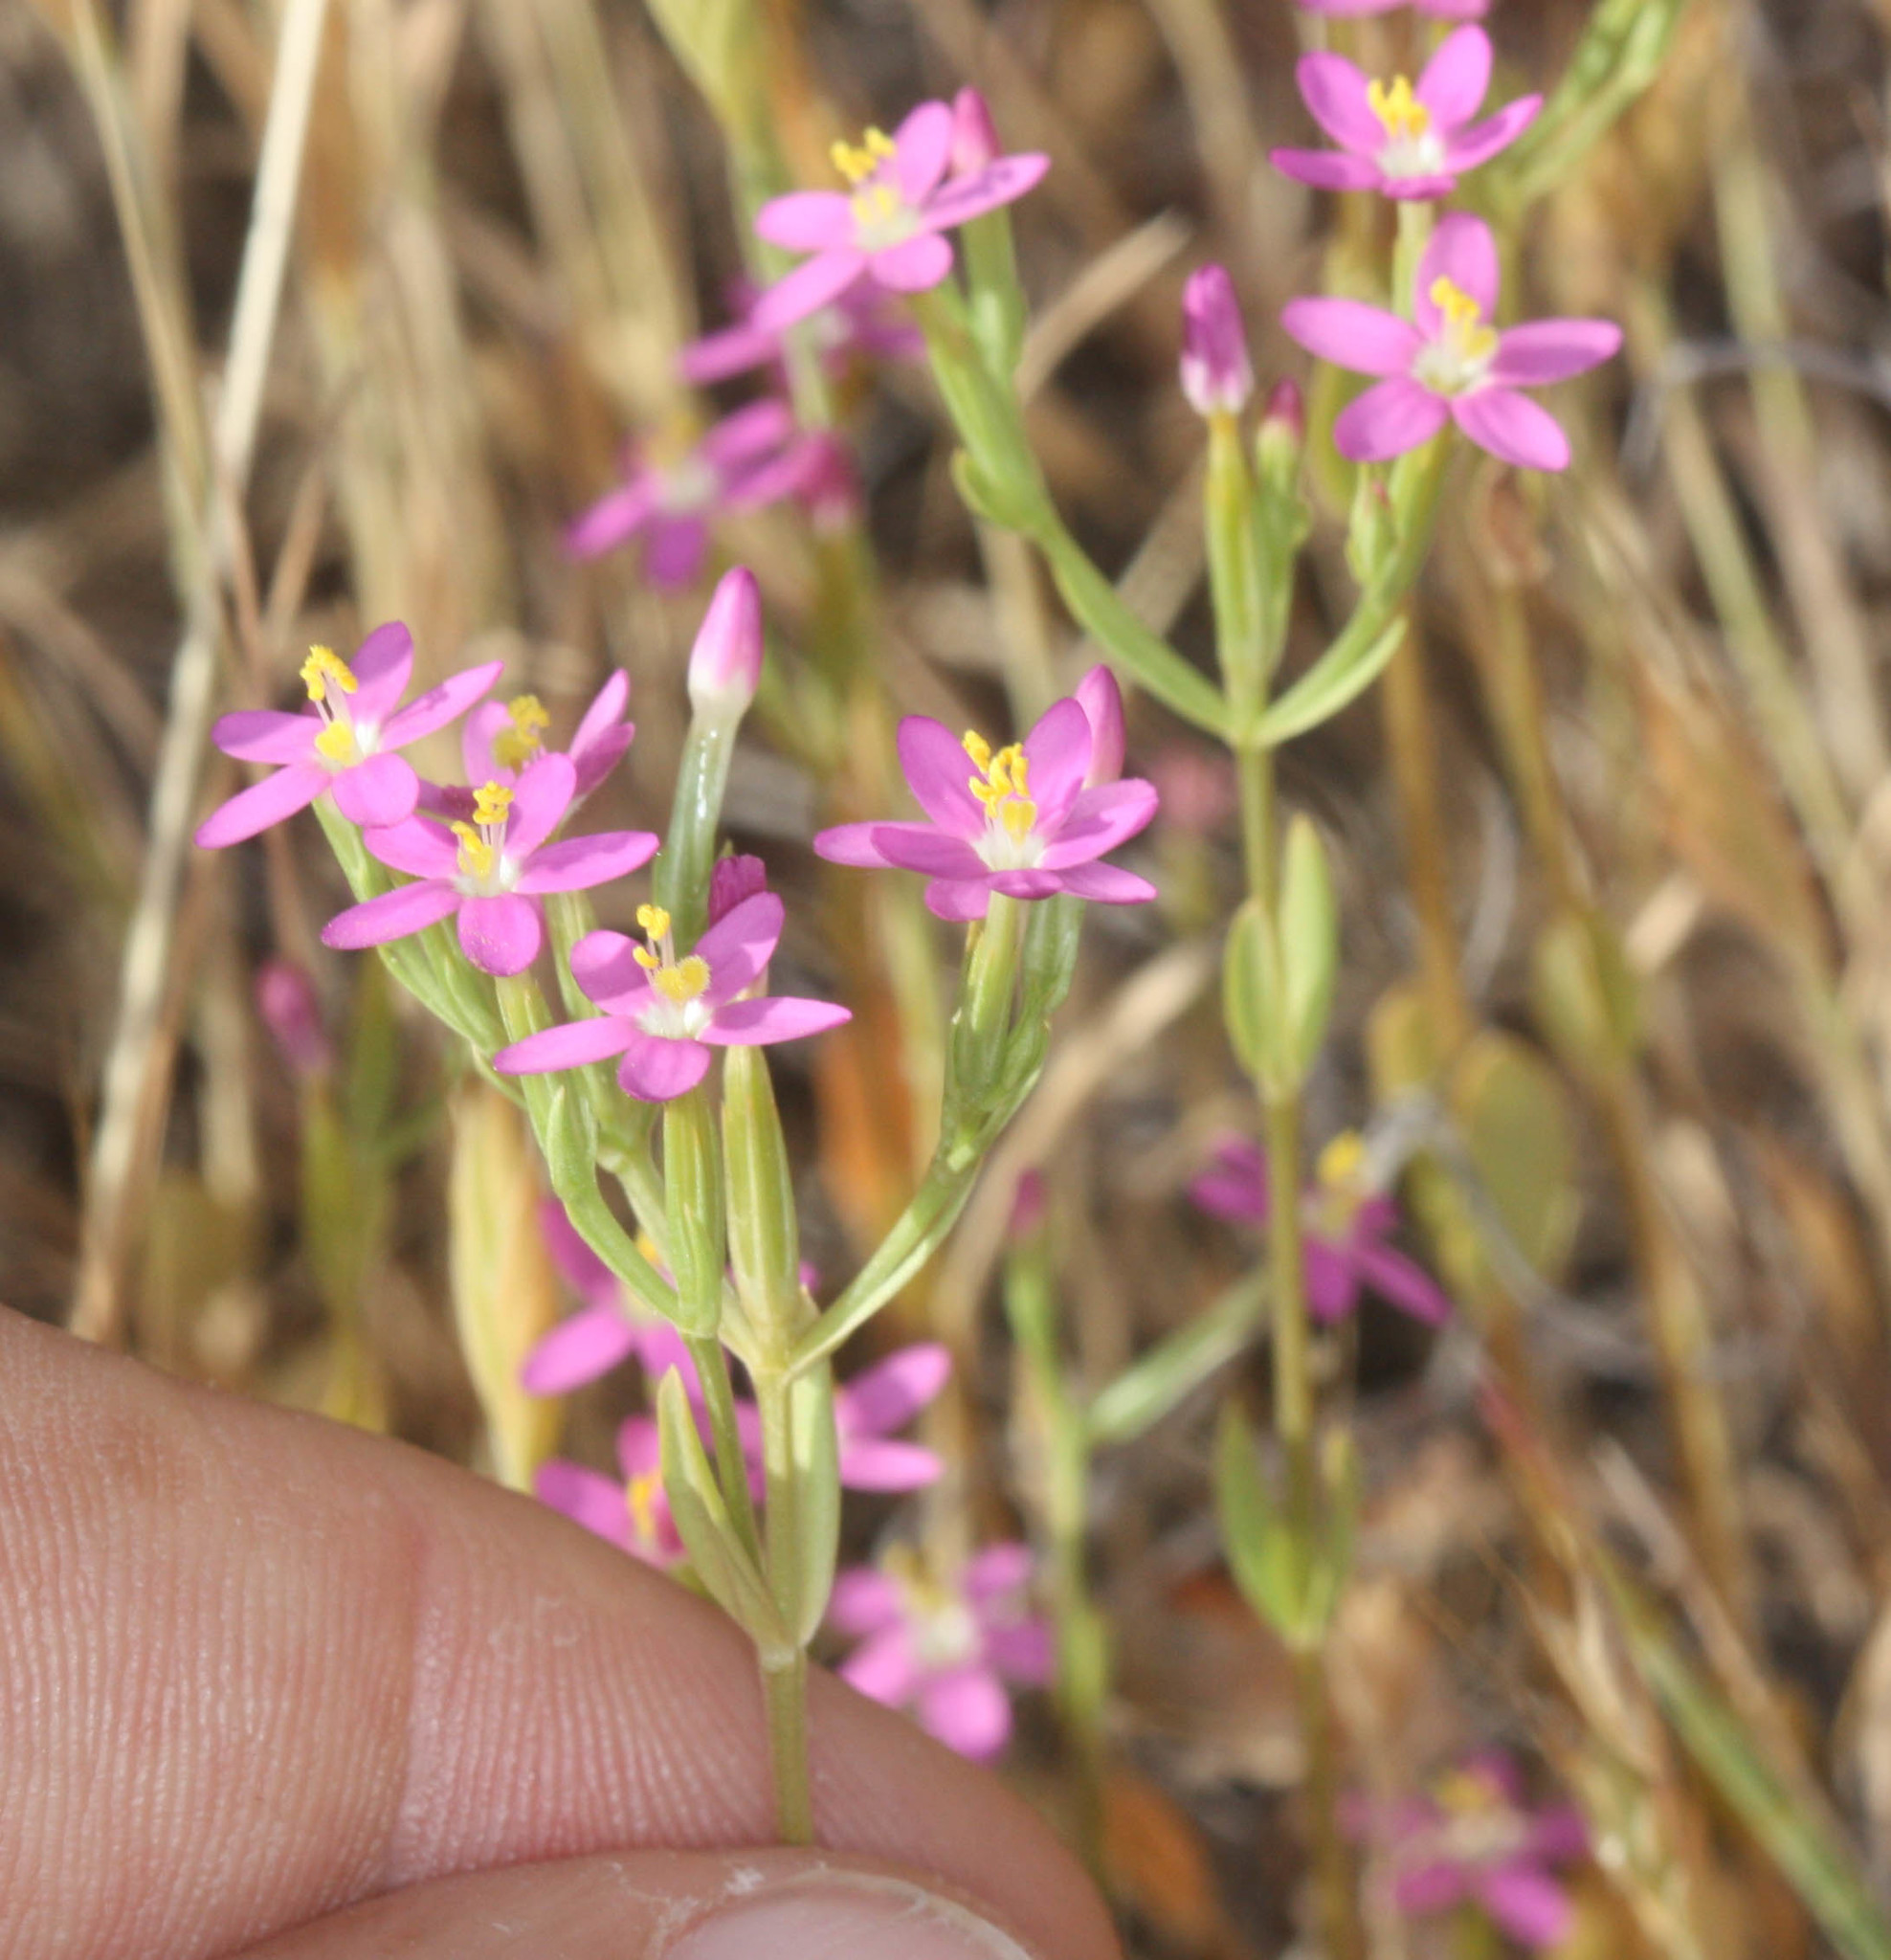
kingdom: Plantae
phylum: Tracheophyta
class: Magnoliopsida
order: Gentianales
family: Gentianaceae
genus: Zeltnera
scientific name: Zeltnera muhlenbergii
